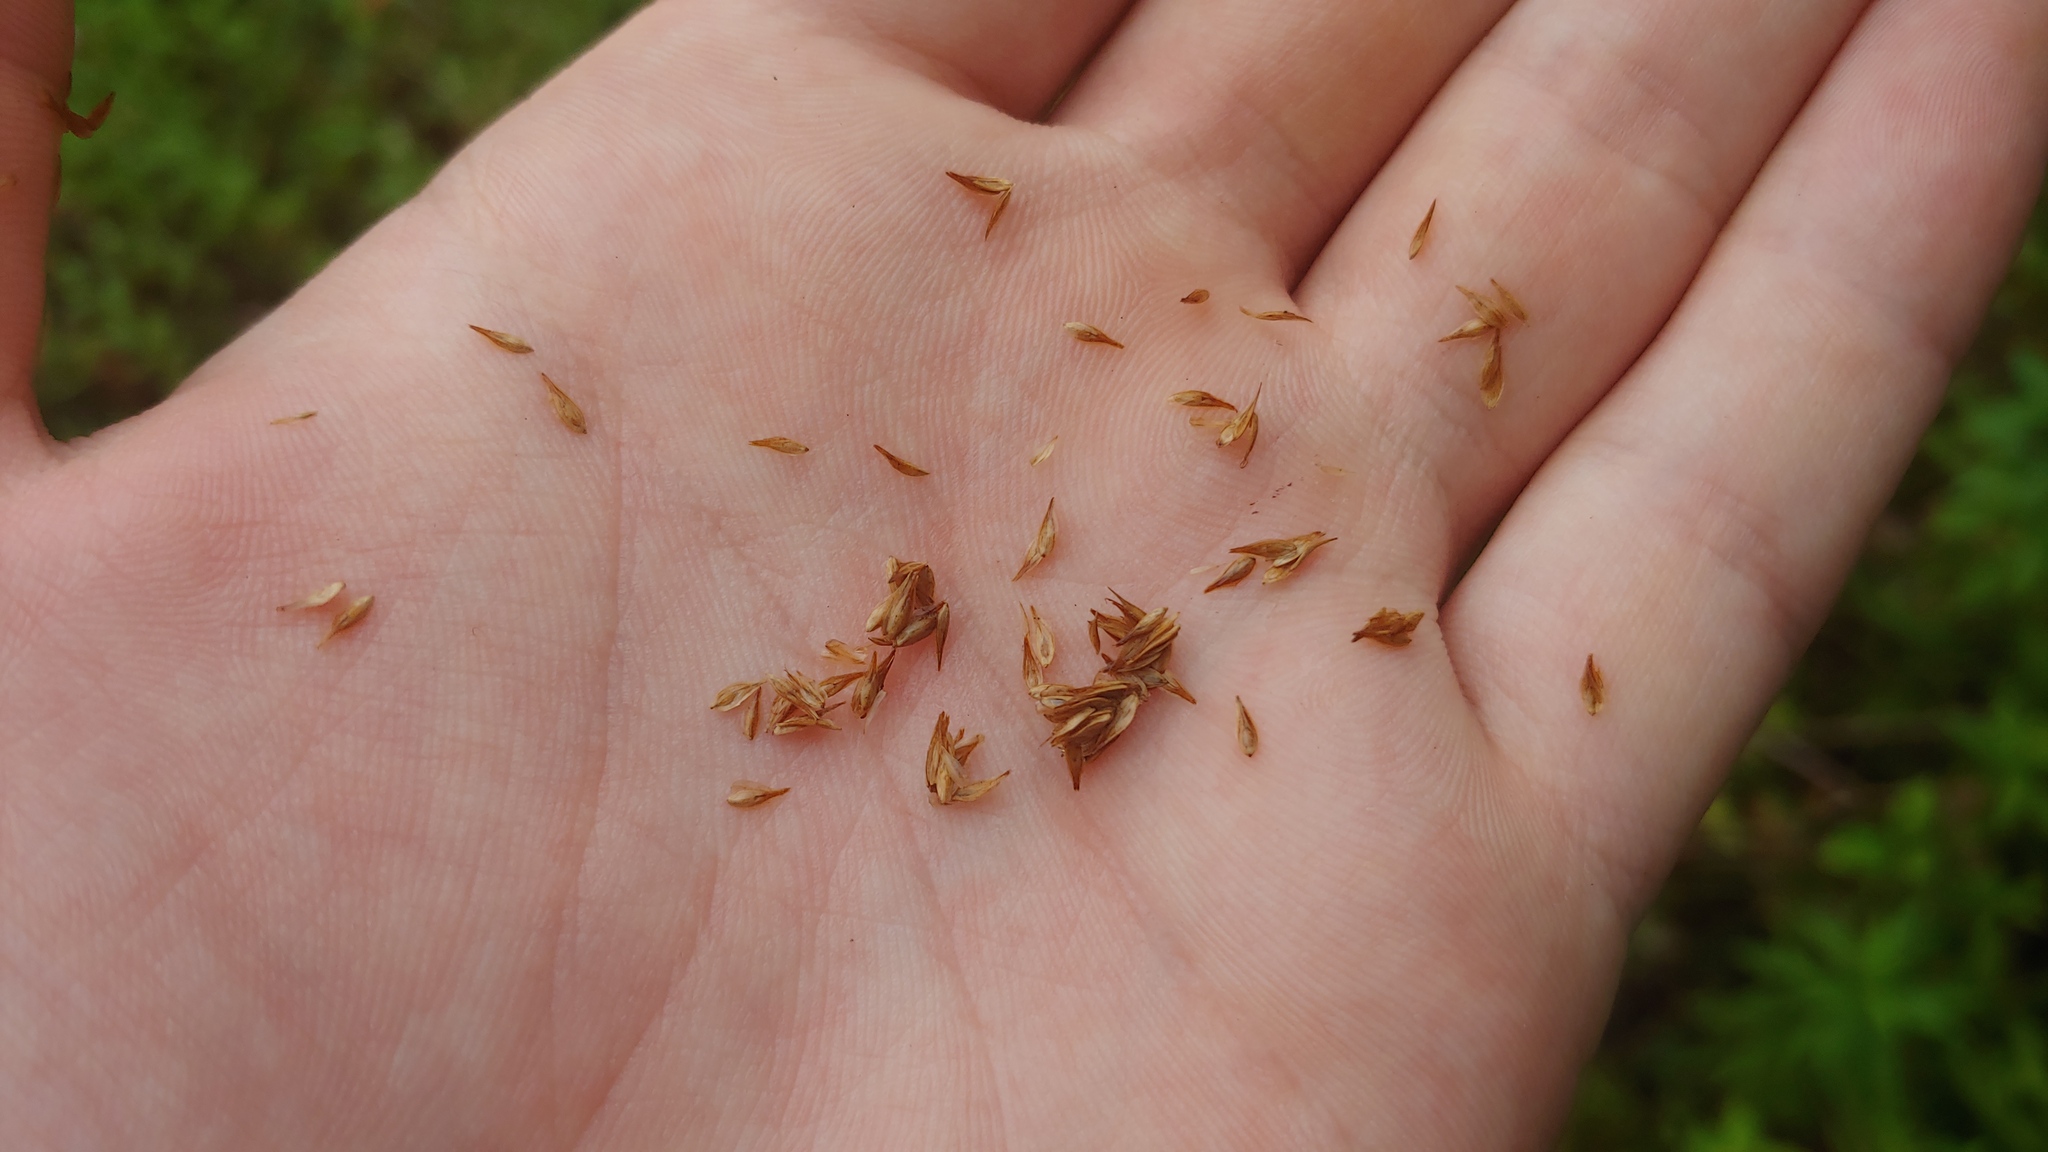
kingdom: Plantae
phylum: Tracheophyta
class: Liliopsida
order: Poales
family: Cyperaceae
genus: Carex
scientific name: Carex bebbii
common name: Bebb's sedge
